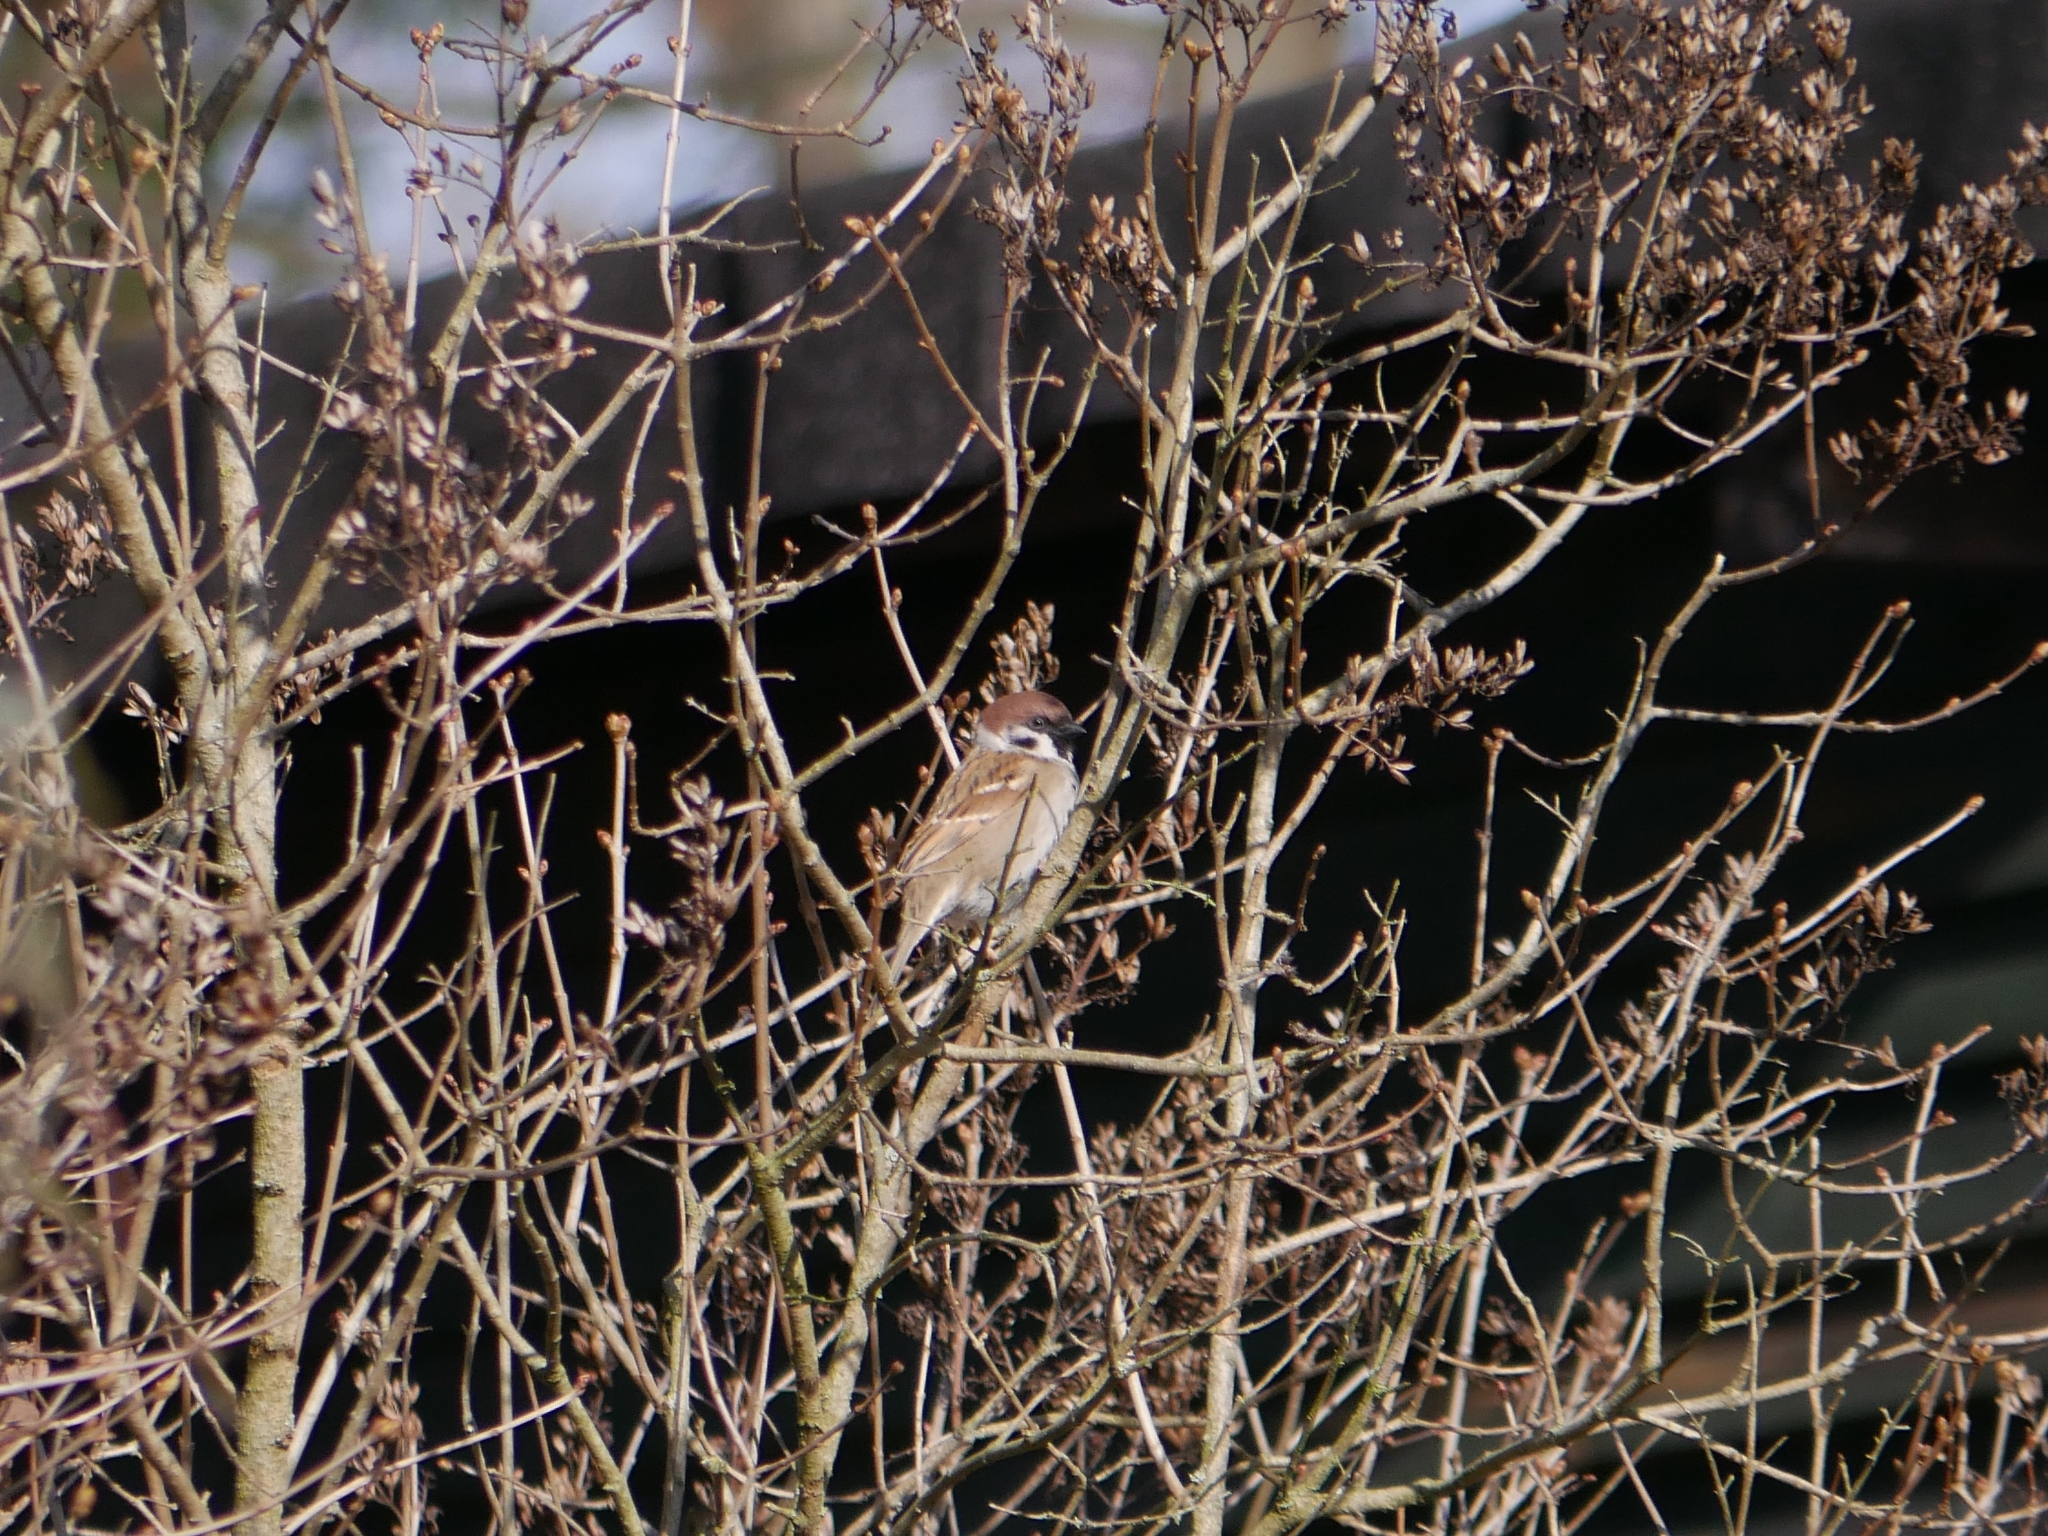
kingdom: Animalia
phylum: Chordata
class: Aves
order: Passeriformes
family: Passeridae
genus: Passer
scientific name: Passer montanus
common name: Eurasian tree sparrow
